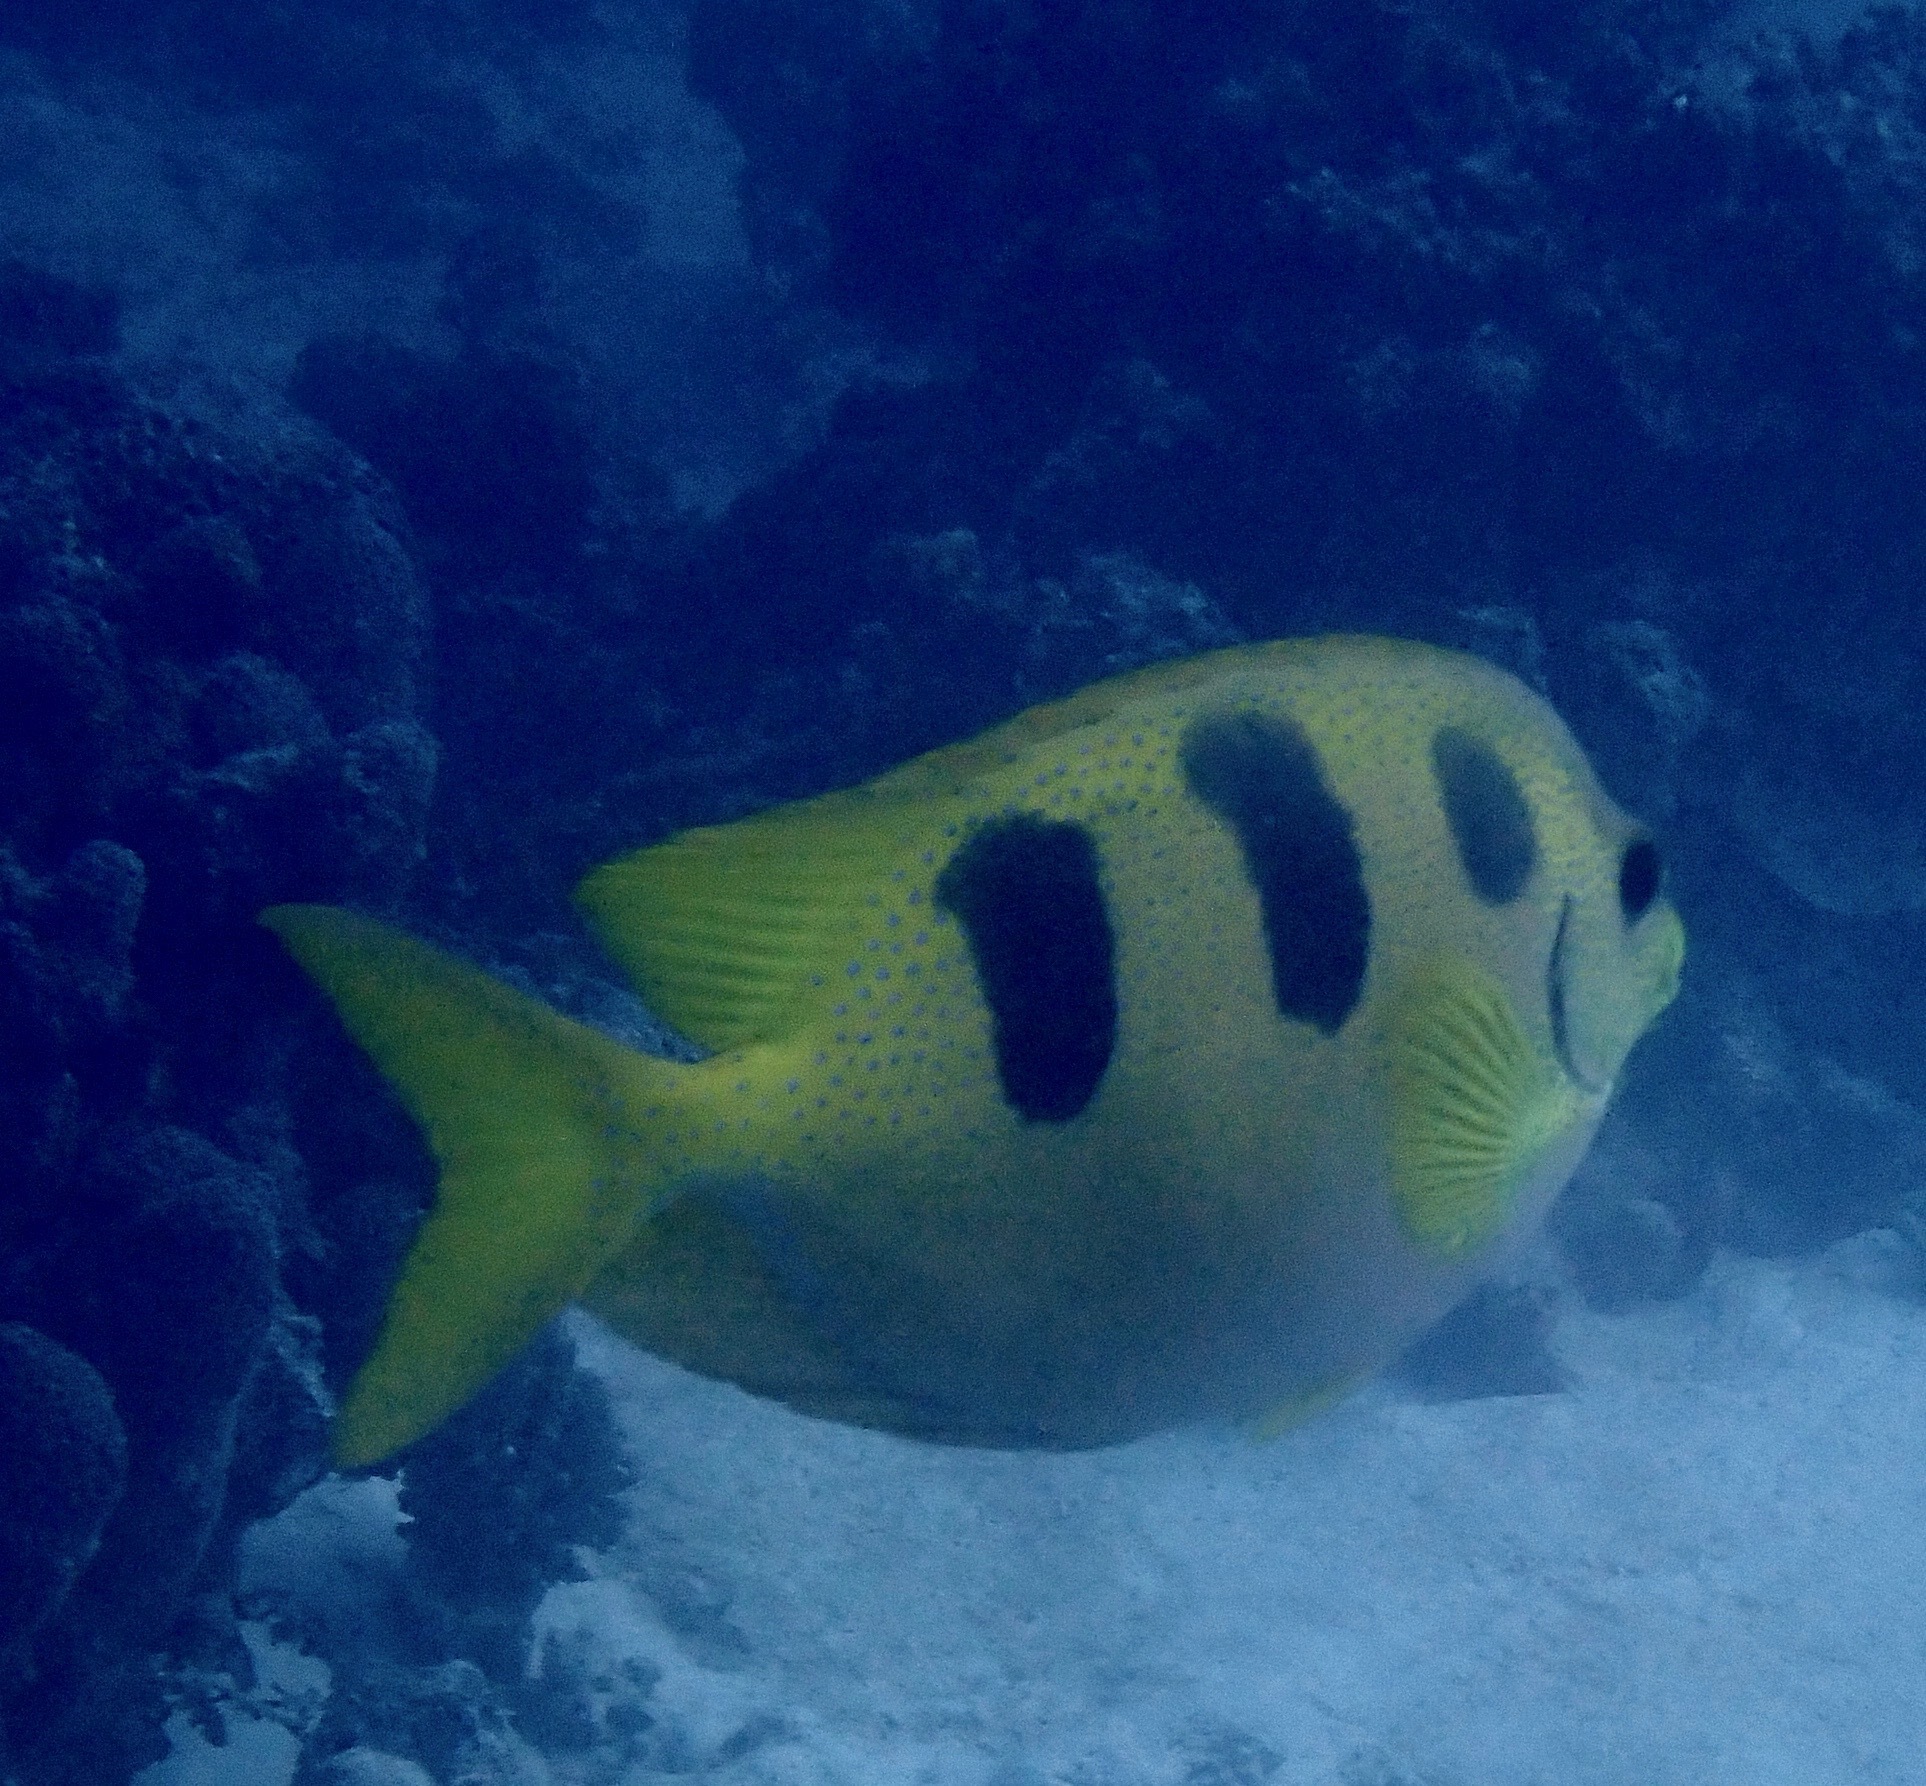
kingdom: Animalia
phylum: Chordata
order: Perciformes
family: Siganidae
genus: Siganus
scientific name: Siganus trispilos
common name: Threeblotched rabbitfish
